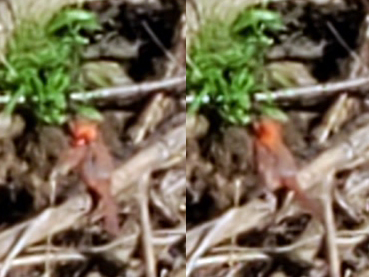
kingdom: Animalia
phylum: Chordata
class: Aves
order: Passeriformes
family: Cardinalidae
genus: Cardinalis
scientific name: Cardinalis cardinalis
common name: Northern cardinal
